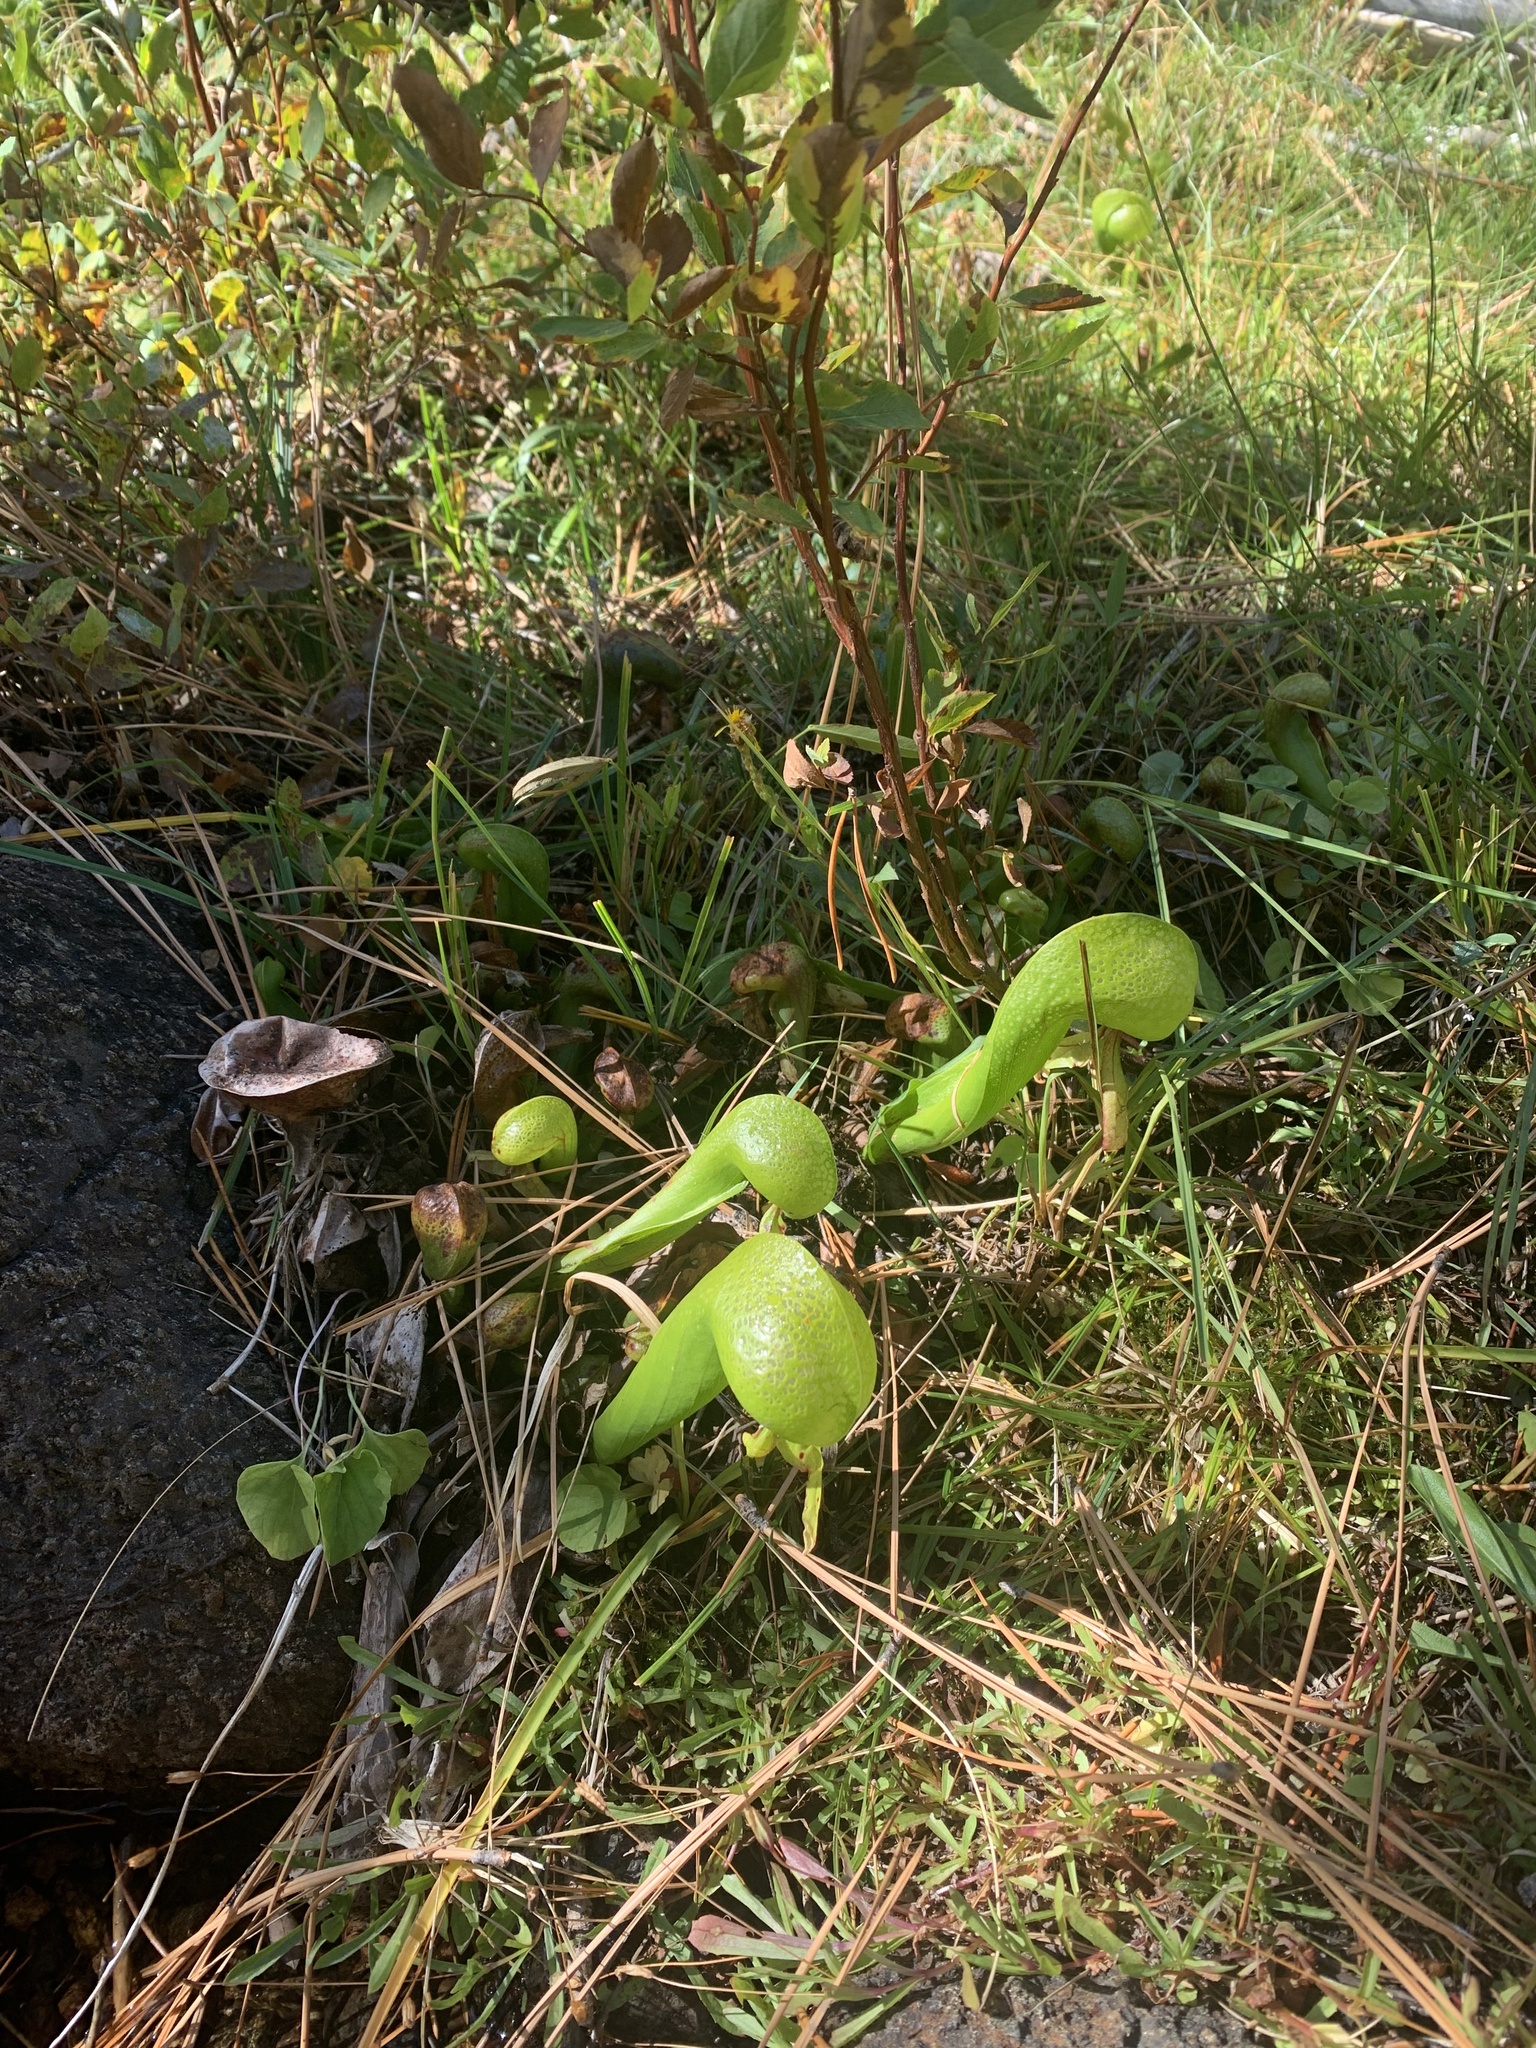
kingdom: Plantae
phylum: Tracheophyta
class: Magnoliopsida
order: Ericales
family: Sarraceniaceae
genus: Darlingtonia
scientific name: Darlingtonia californica
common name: California pitcher plant
